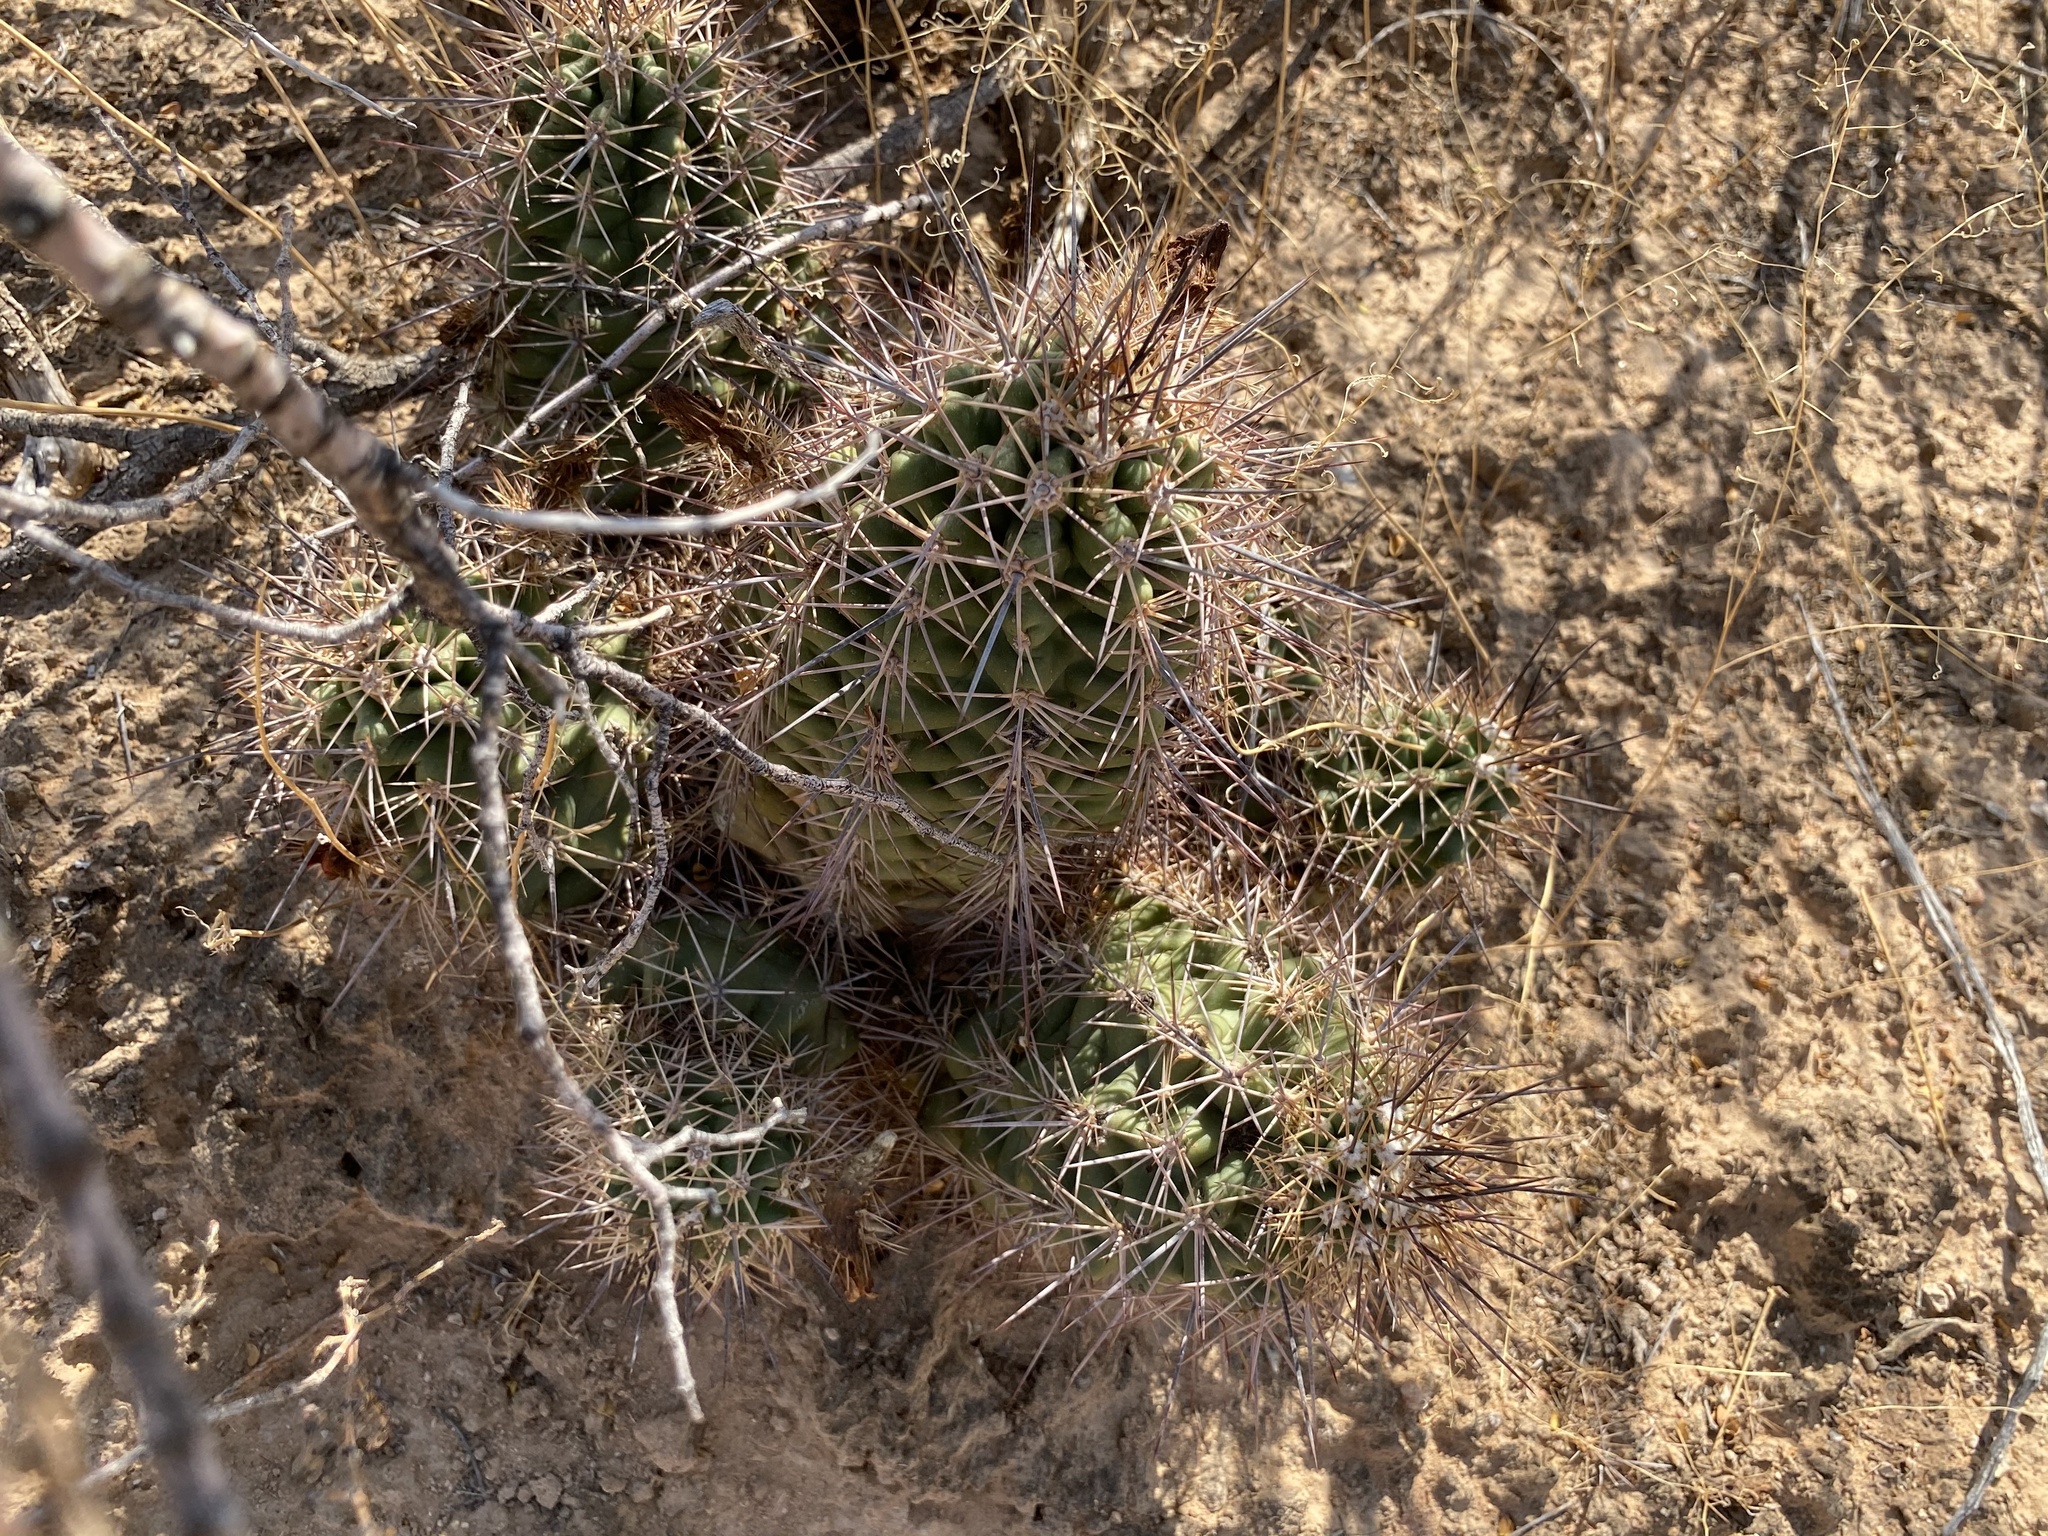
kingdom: Plantae
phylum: Tracheophyta
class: Magnoliopsida
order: Caryophyllales
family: Cactaceae
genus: Echinocereus
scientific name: Echinocereus coccineus
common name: Scarlet hedgehog cactus
